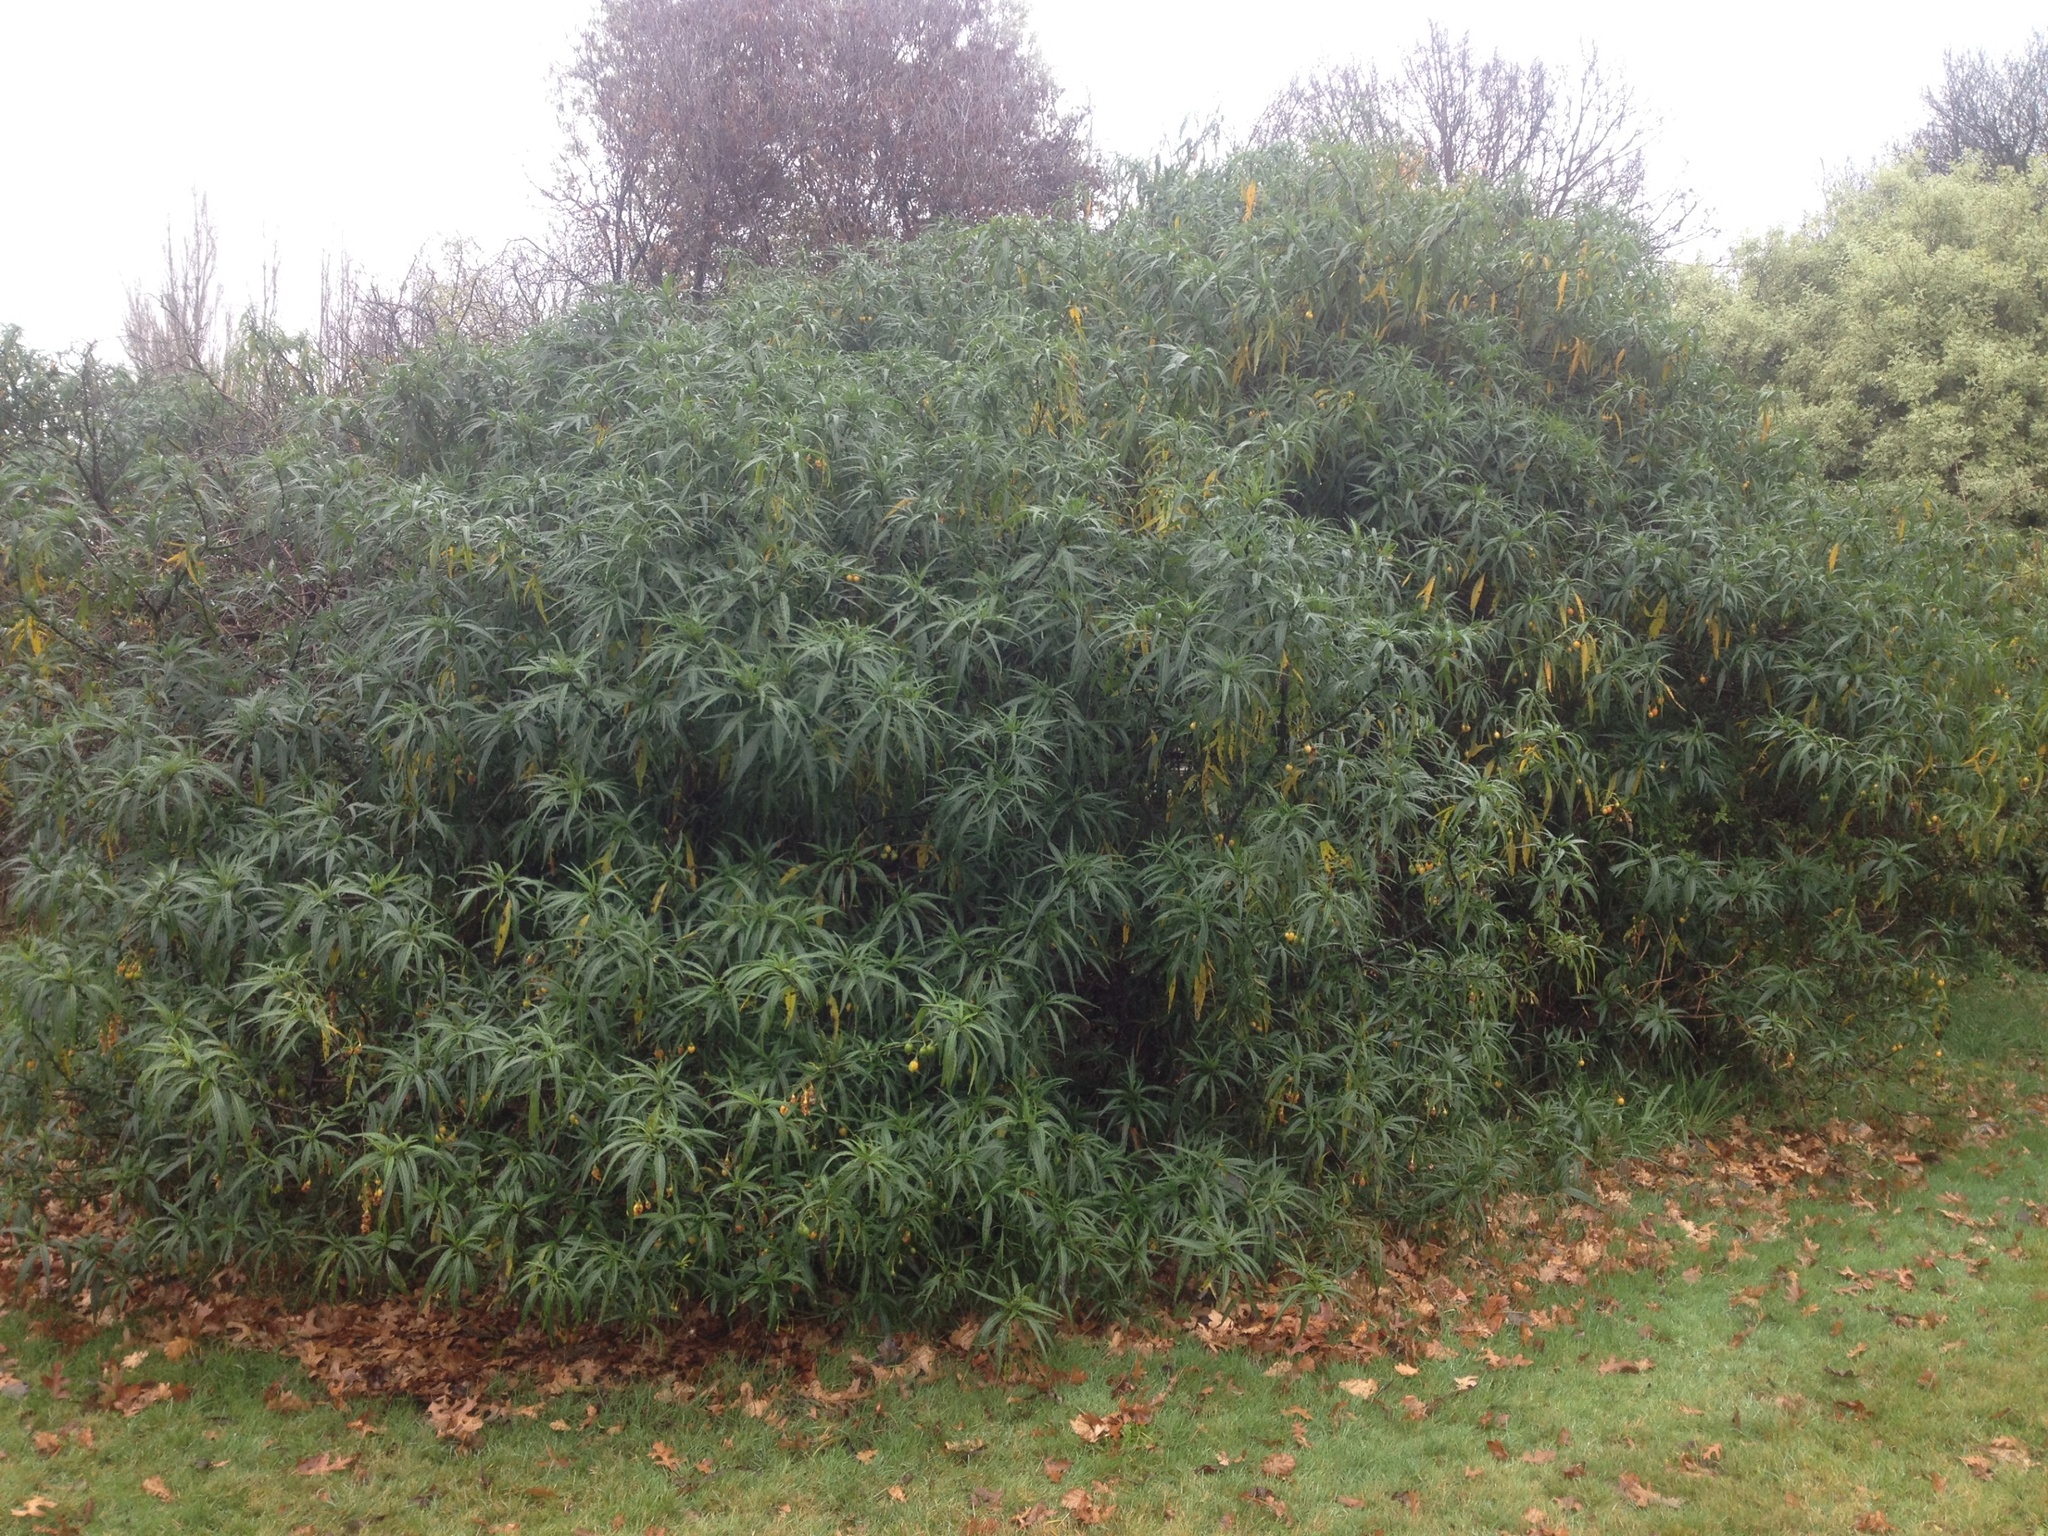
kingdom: Plantae
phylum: Tracheophyta
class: Magnoliopsida
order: Solanales
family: Solanaceae
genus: Solanum
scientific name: Solanum laciniatum
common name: Kangaroo-apple
